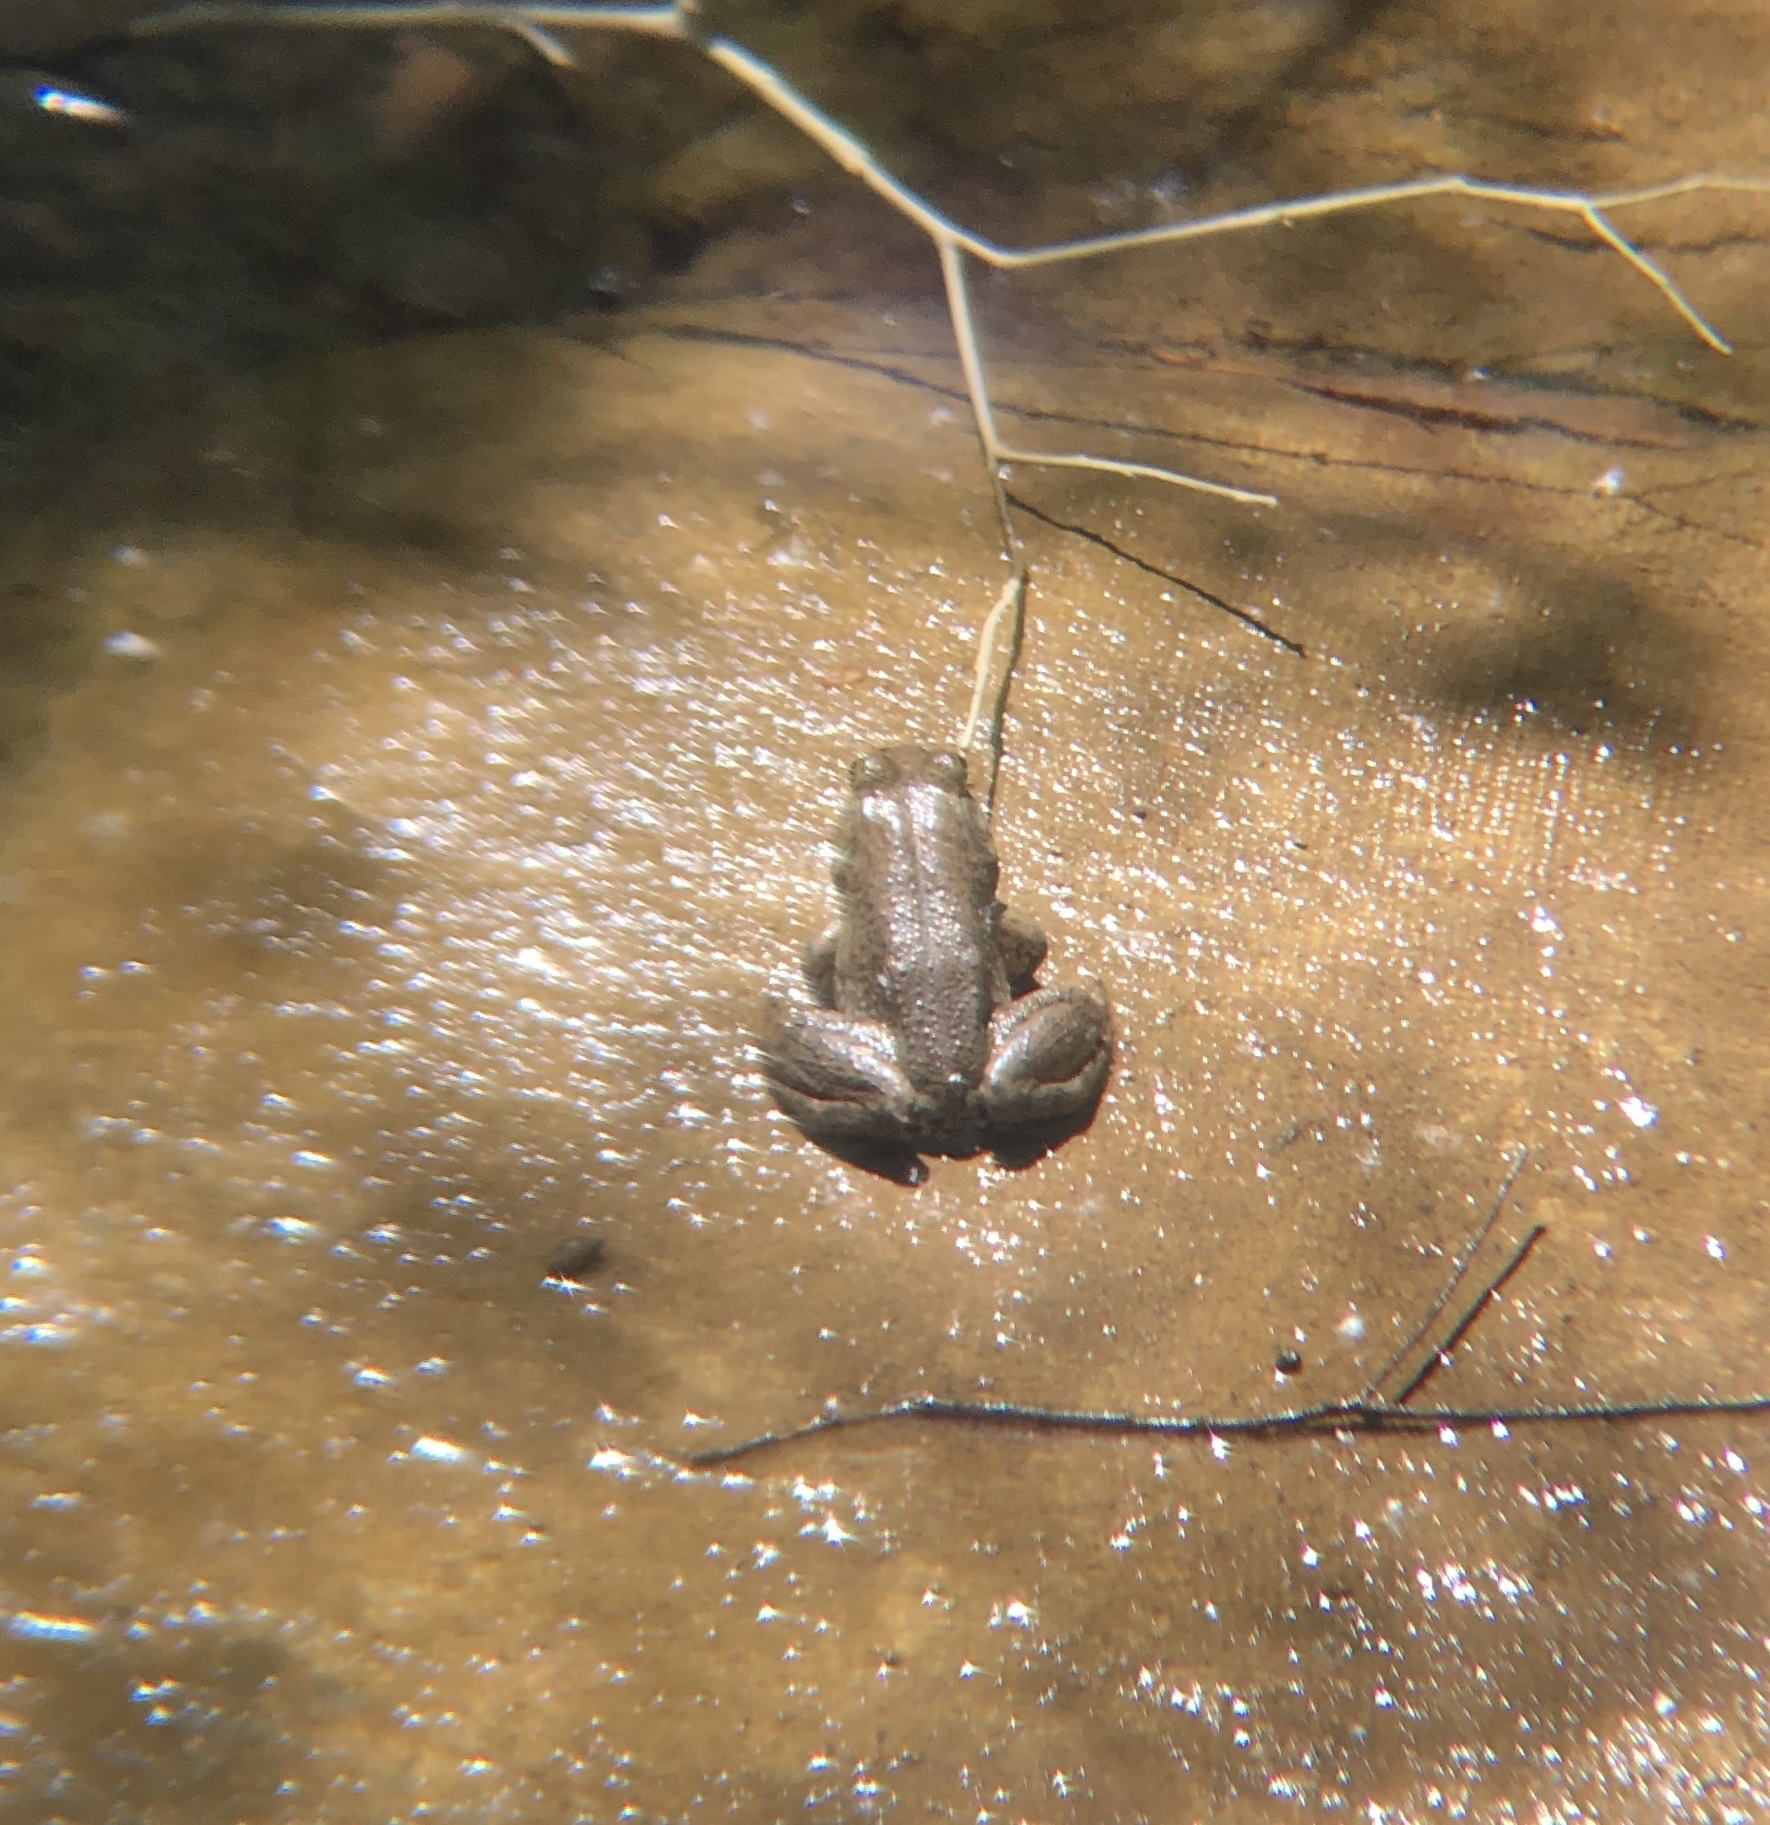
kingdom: Animalia
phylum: Chordata
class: Amphibia
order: Anura
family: Ranidae
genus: Lithobates
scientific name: Lithobates catesbeianus
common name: American bullfrog
